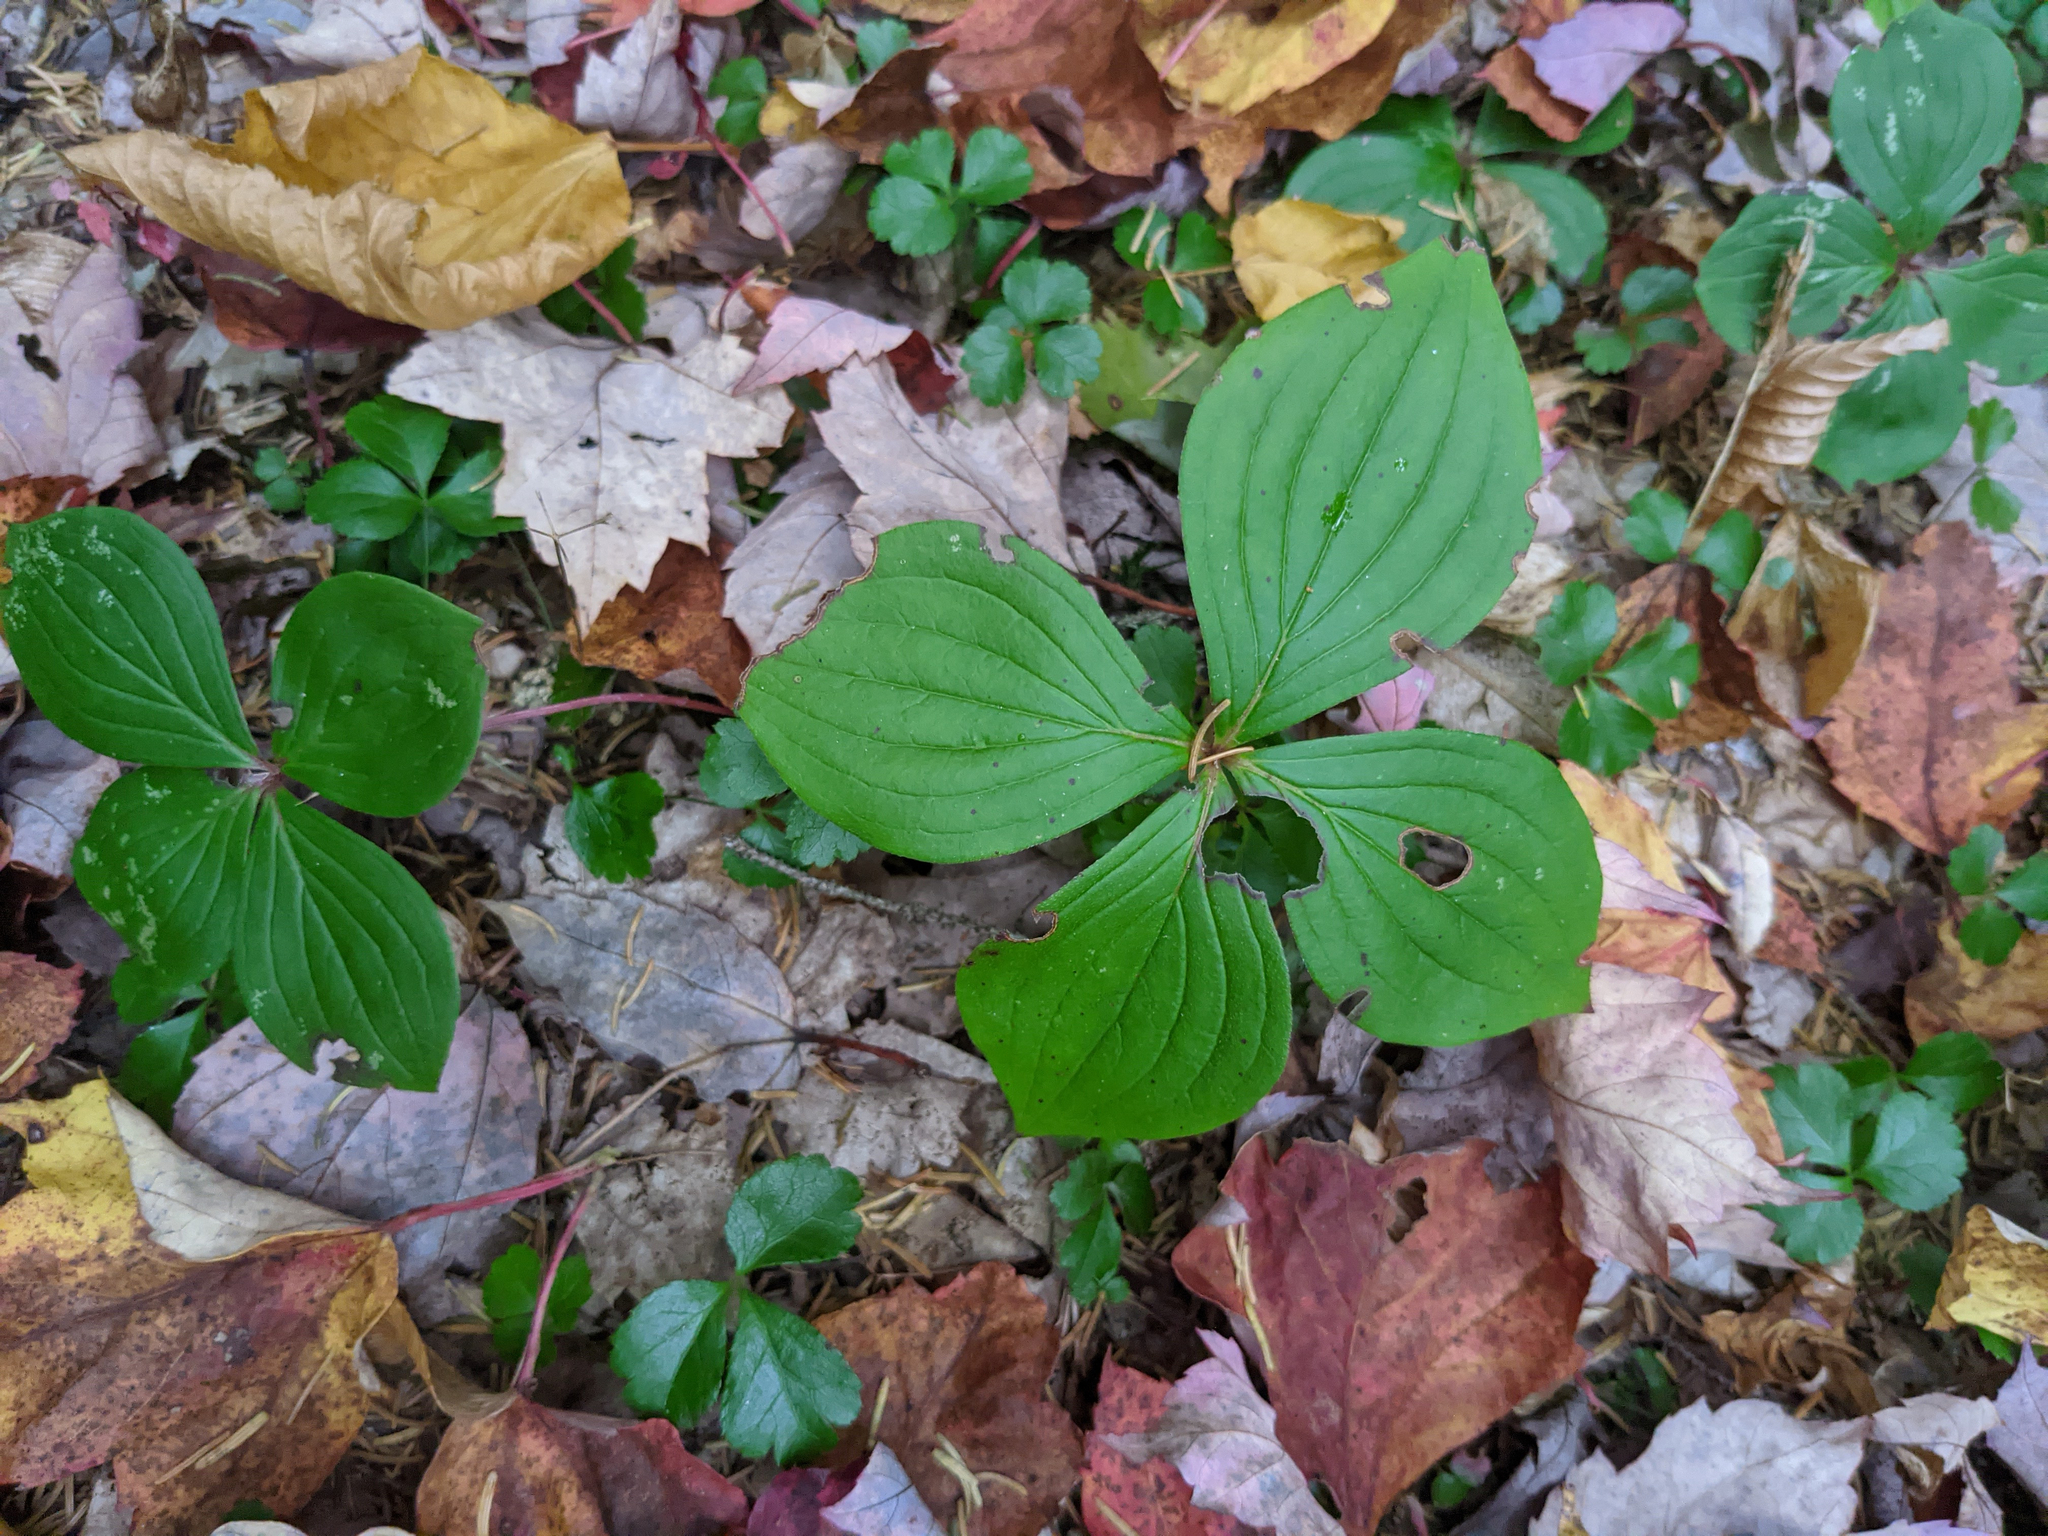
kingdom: Plantae
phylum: Tracheophyta
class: Magnoliopsida
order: Cornales
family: Cornaceae
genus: Cornus
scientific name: Cornus canadensis
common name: Creeping dogwood
